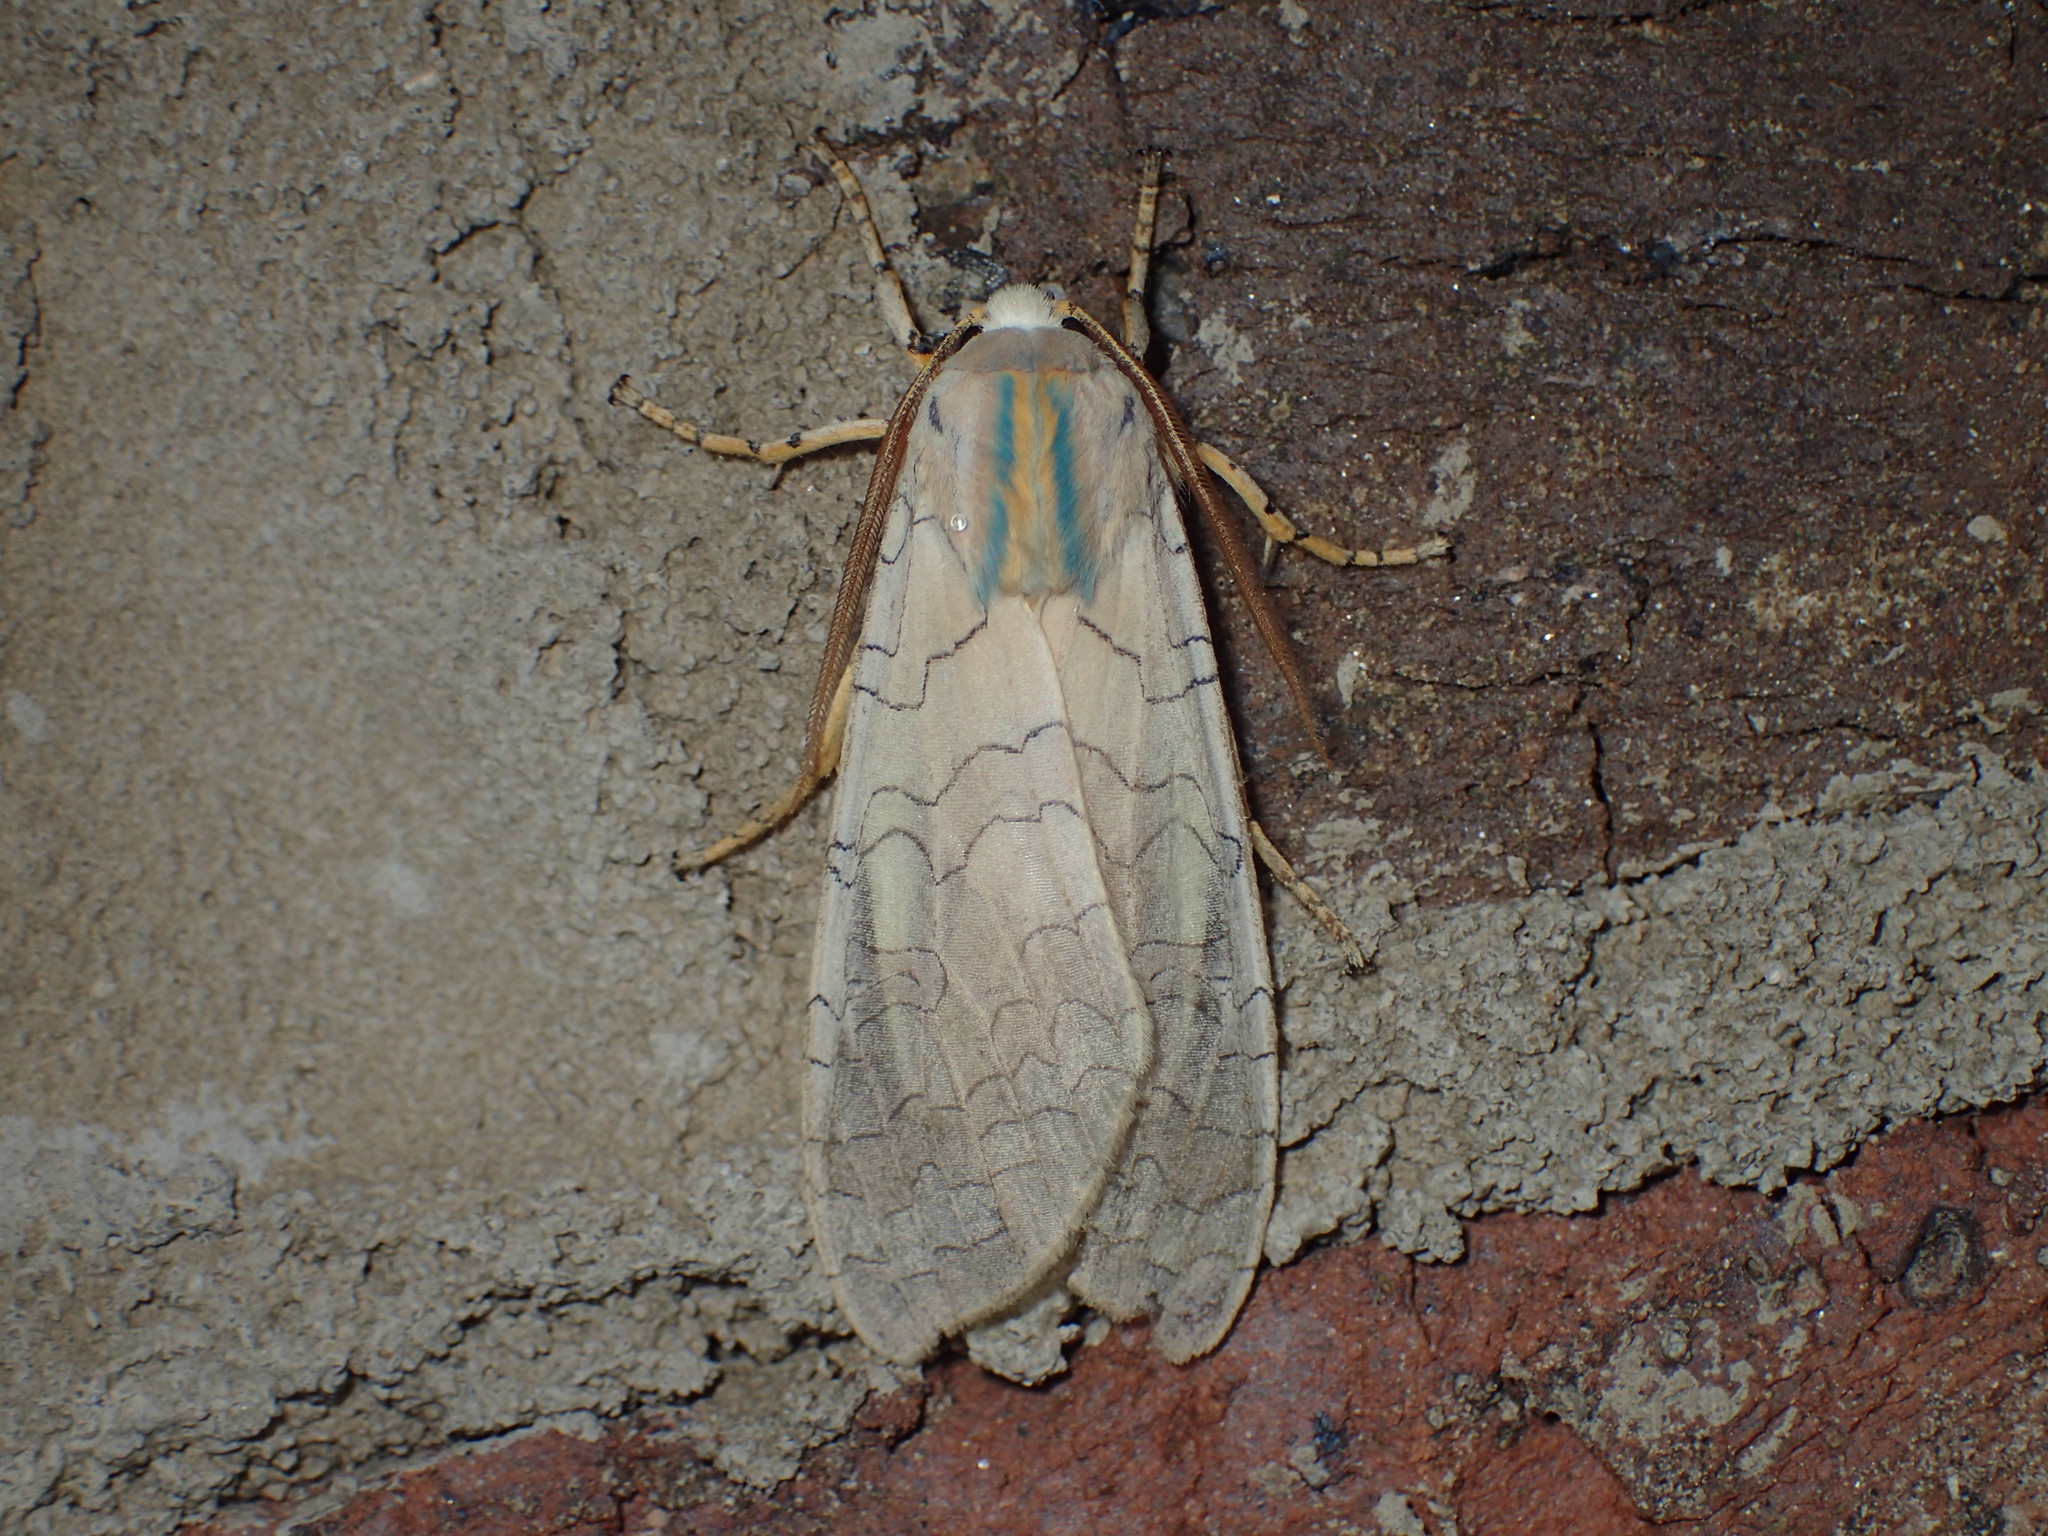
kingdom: Animalia
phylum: Arthropoda
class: Insecta
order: Lepidoptera
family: Erebidae
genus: Halysidota
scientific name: Halysidota
